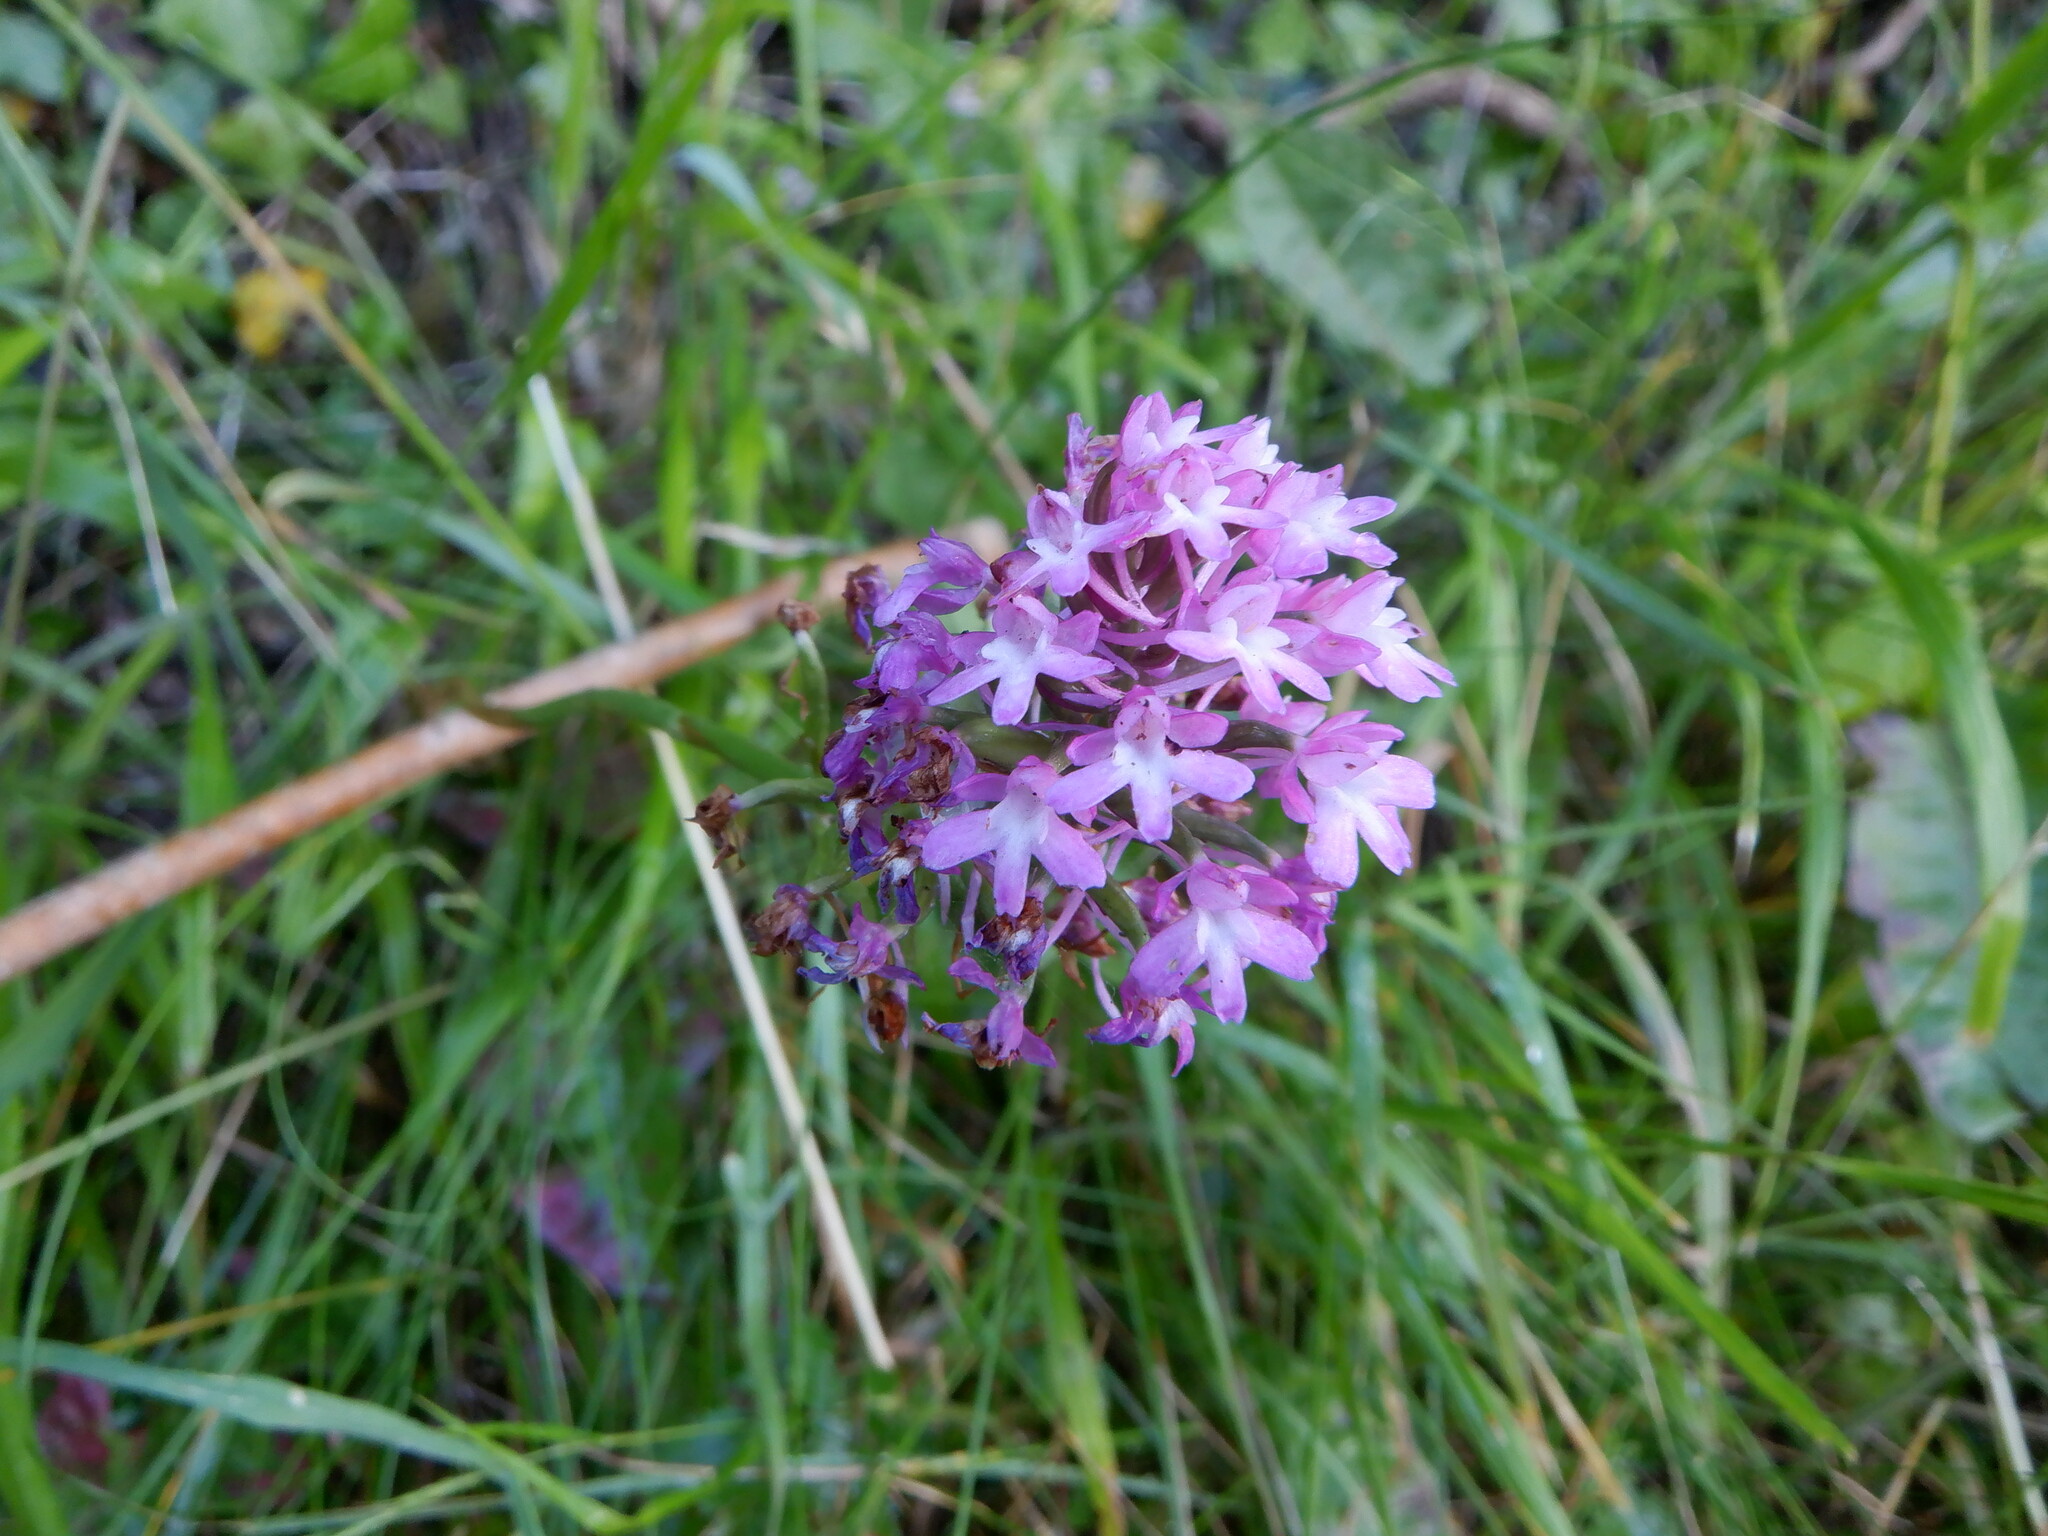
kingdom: Plantae
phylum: Tracheophyta
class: Liliopsida
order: Asparagales
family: Orchidaceae
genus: Anacamptis
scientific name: Anacamptis pyramidalis
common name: Pyramidal orchid
